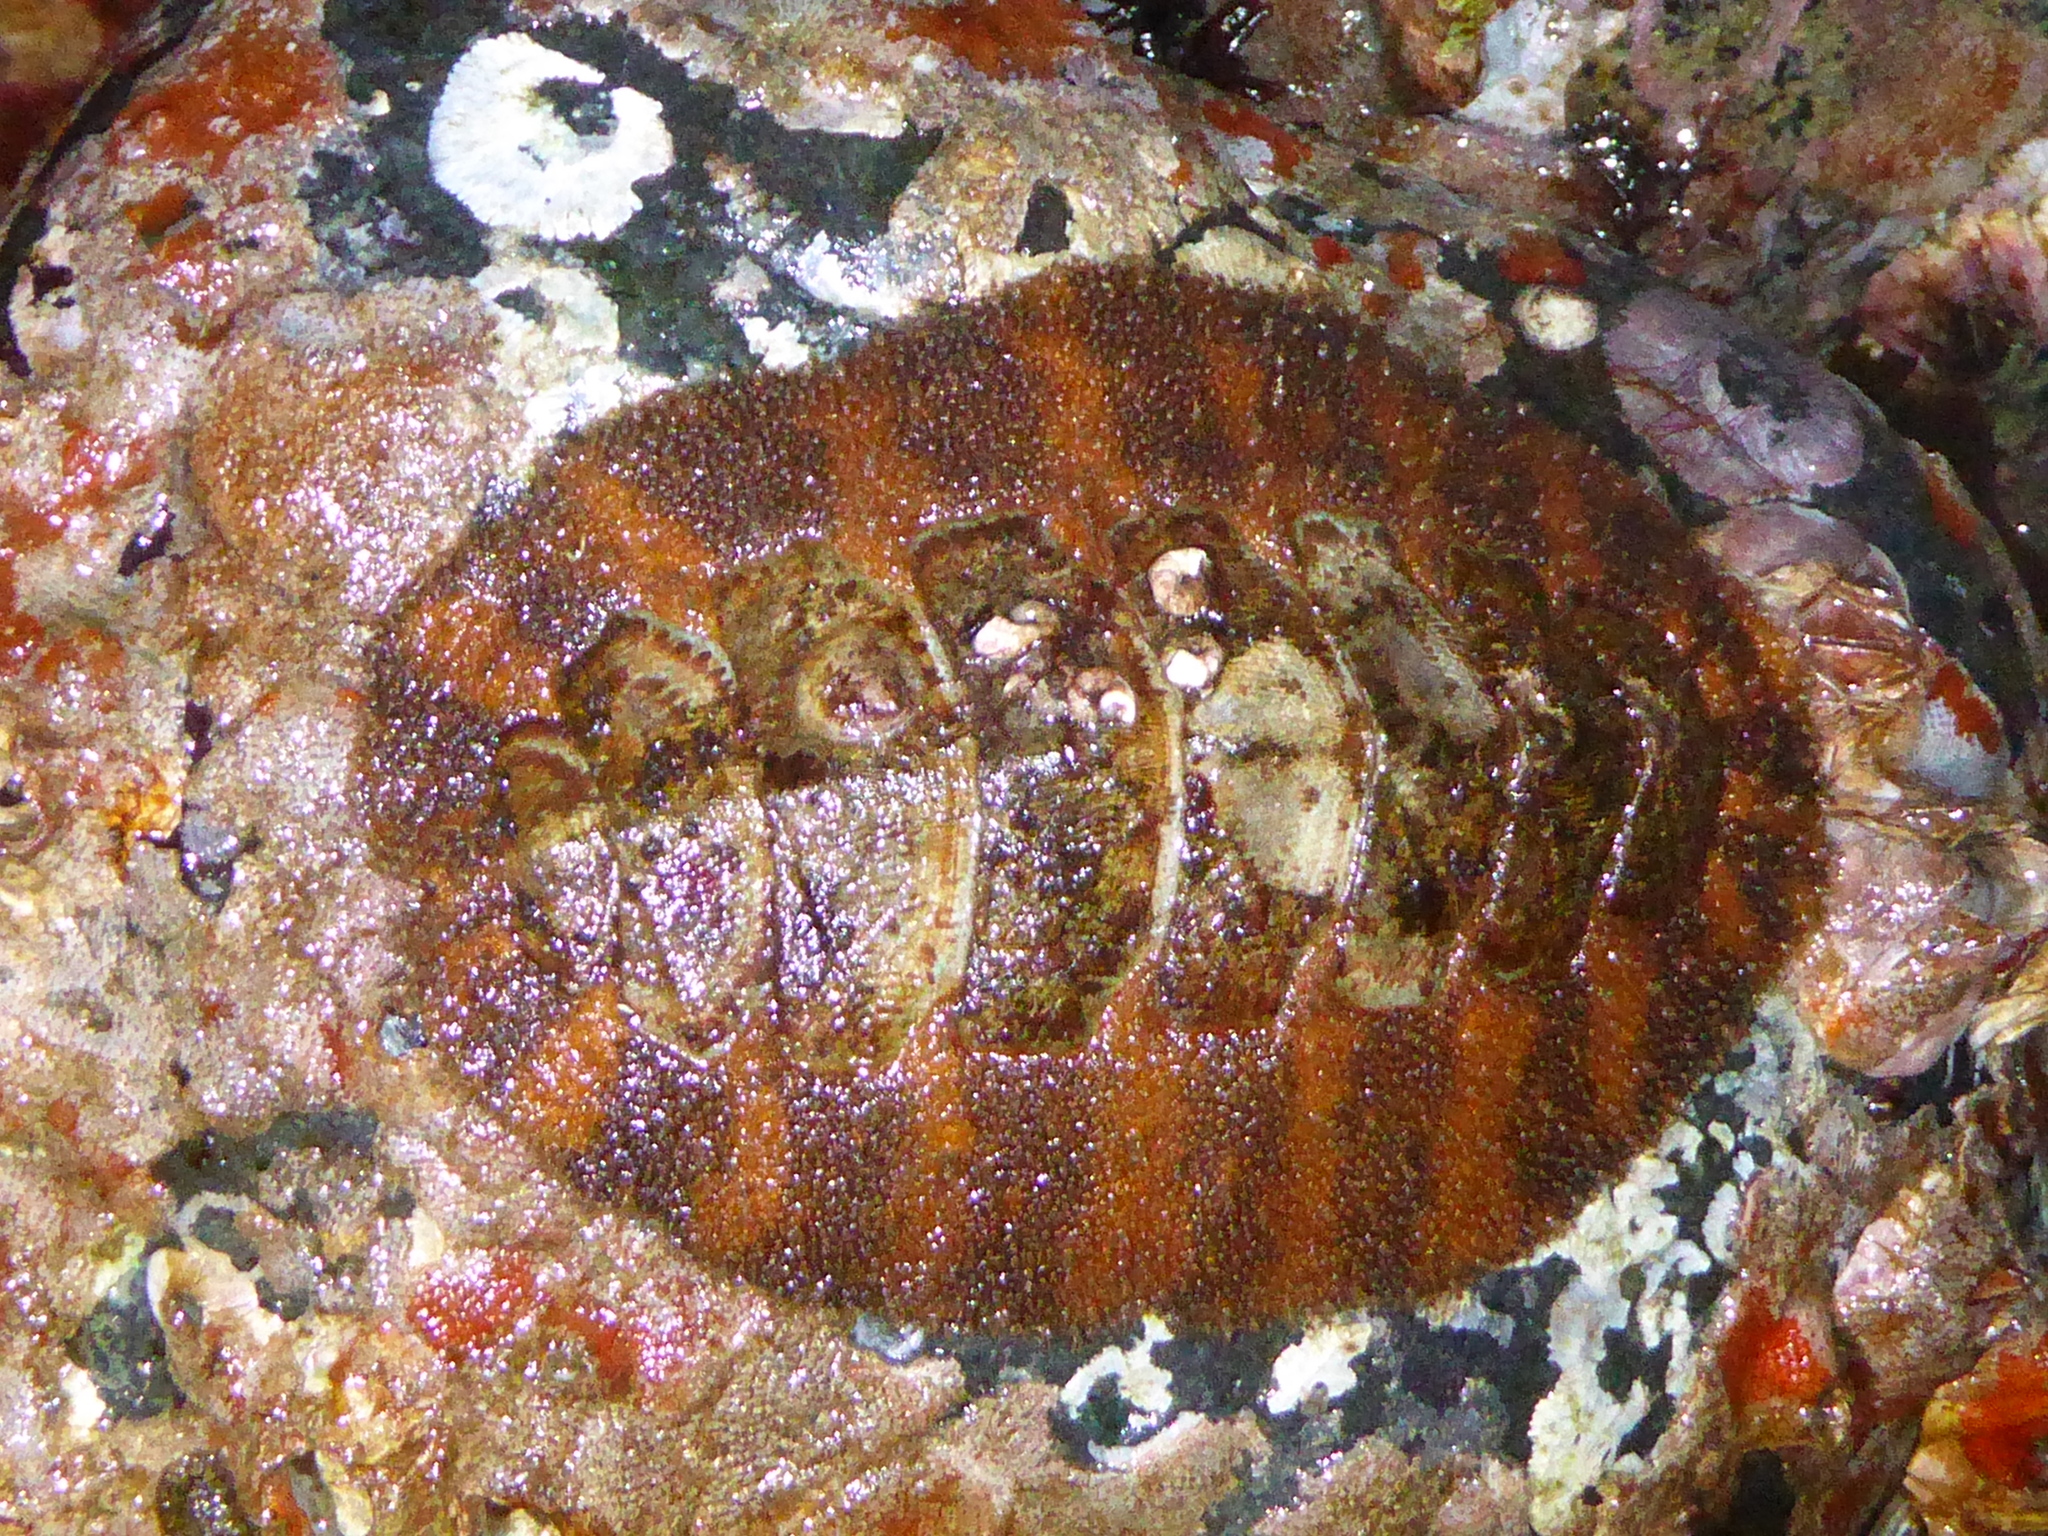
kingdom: Animalia
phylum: Mollusca
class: Polyplacophora
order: Chitonida
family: Mopaliidae
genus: Mopalia
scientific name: Mopalia ciliata
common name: Hairy chiton
